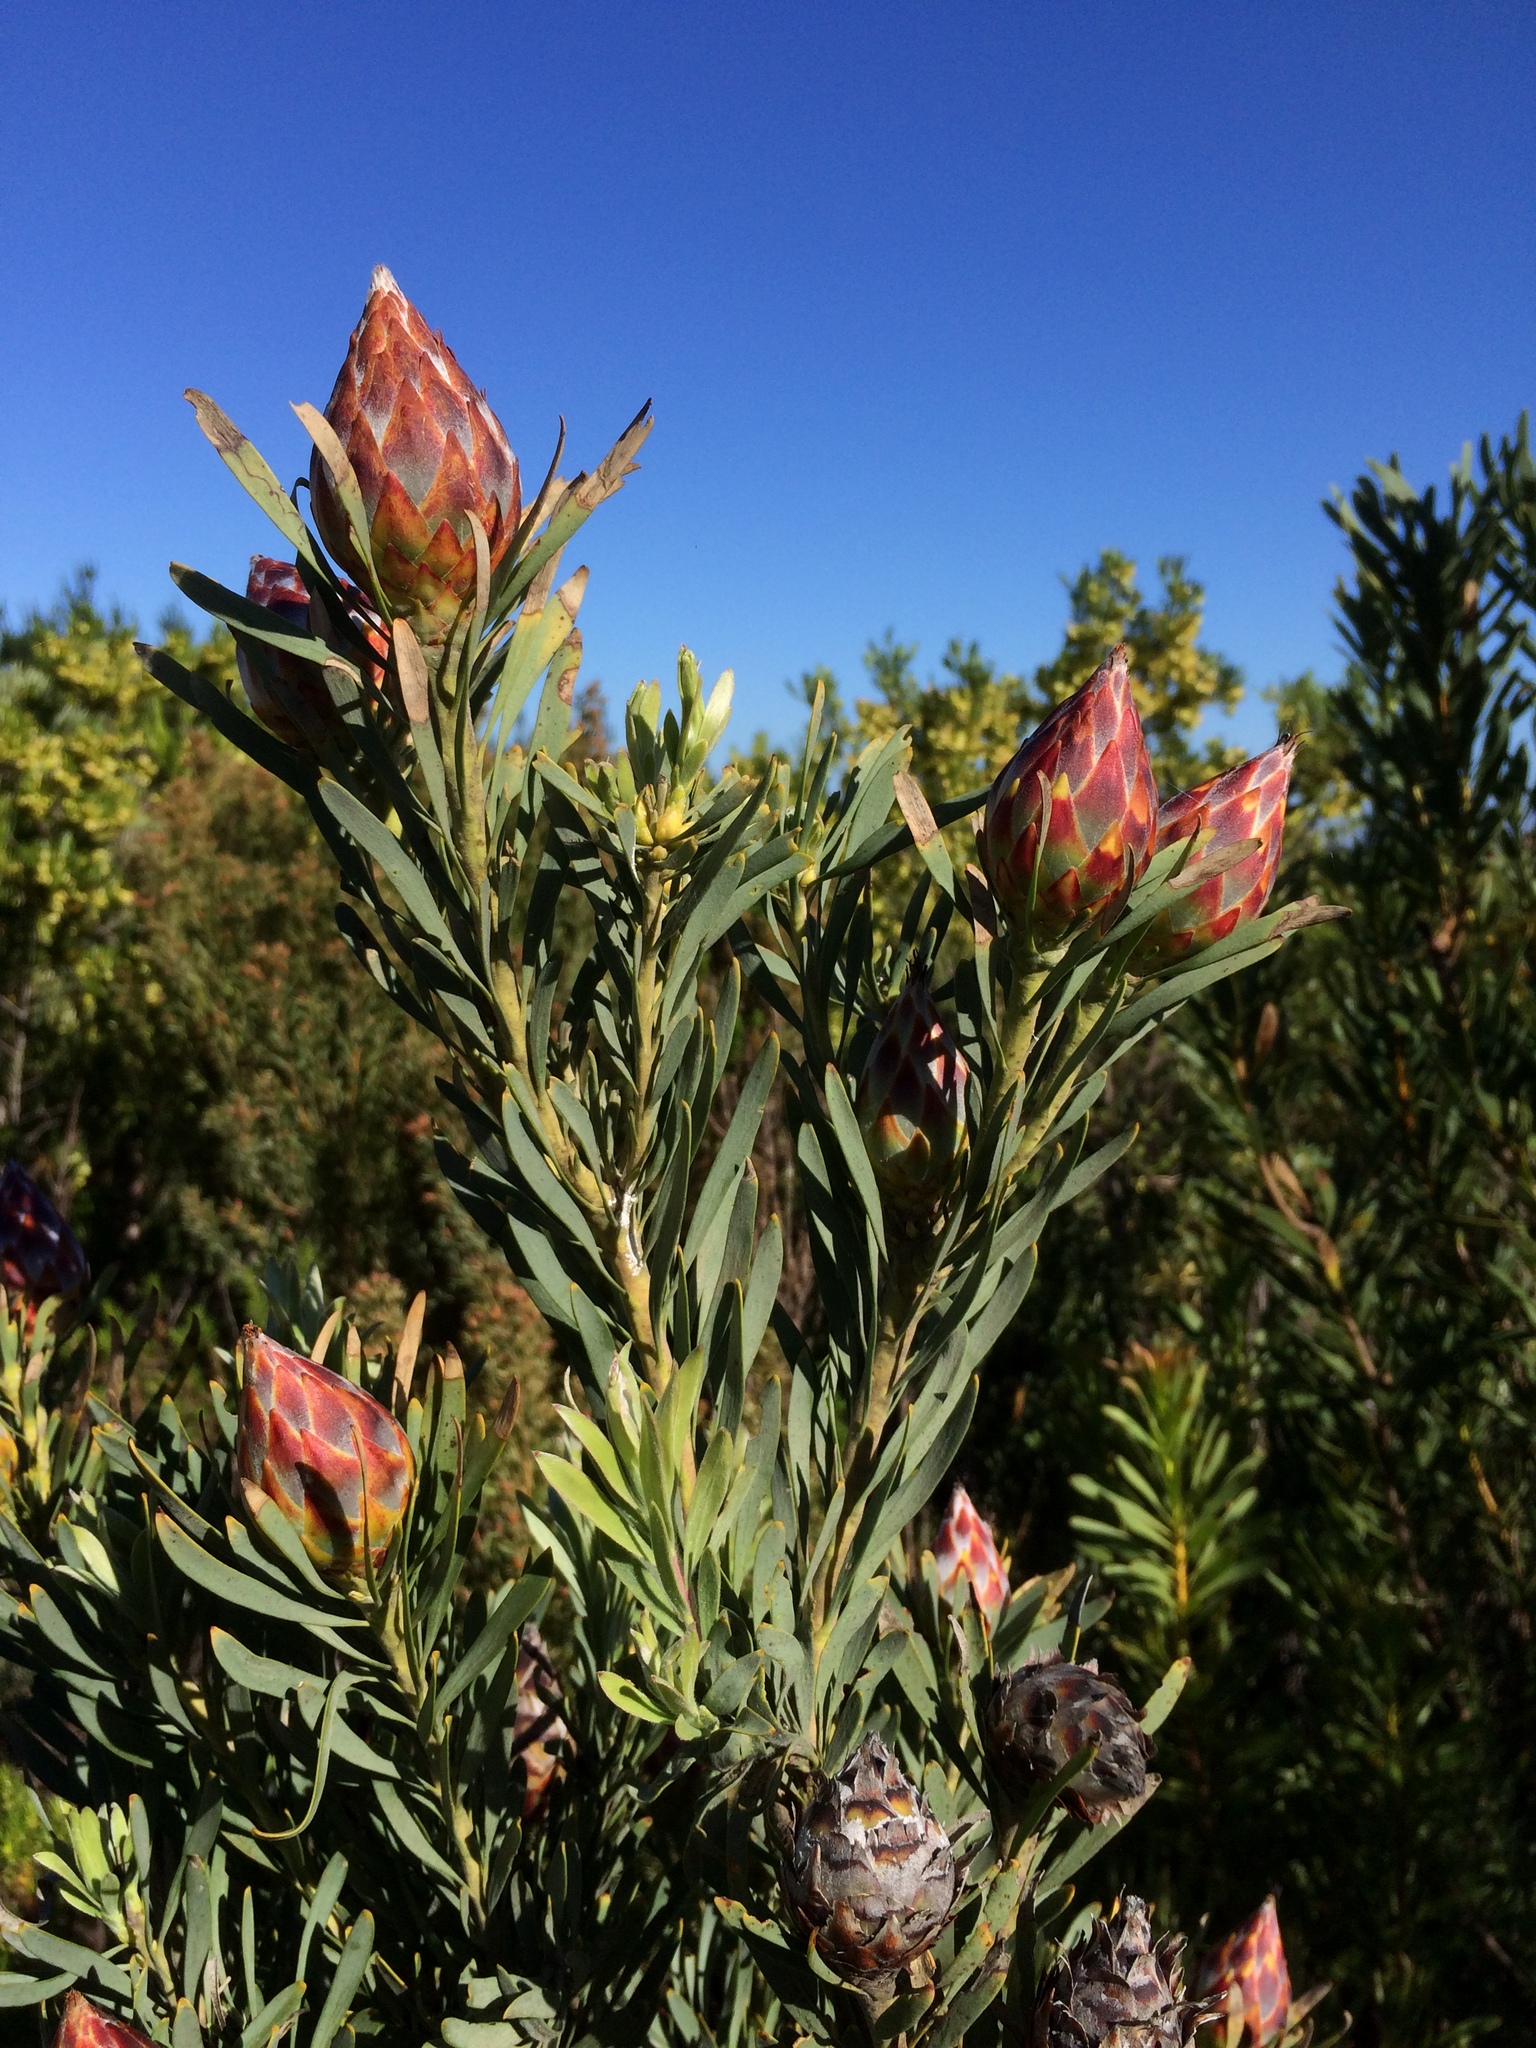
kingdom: Plantae
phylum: Tracheophyta
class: Magnoliopsida
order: Proteales
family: Proteaceae
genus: Leucadendron
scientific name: Leucadendron rubrum
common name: Spinning top
